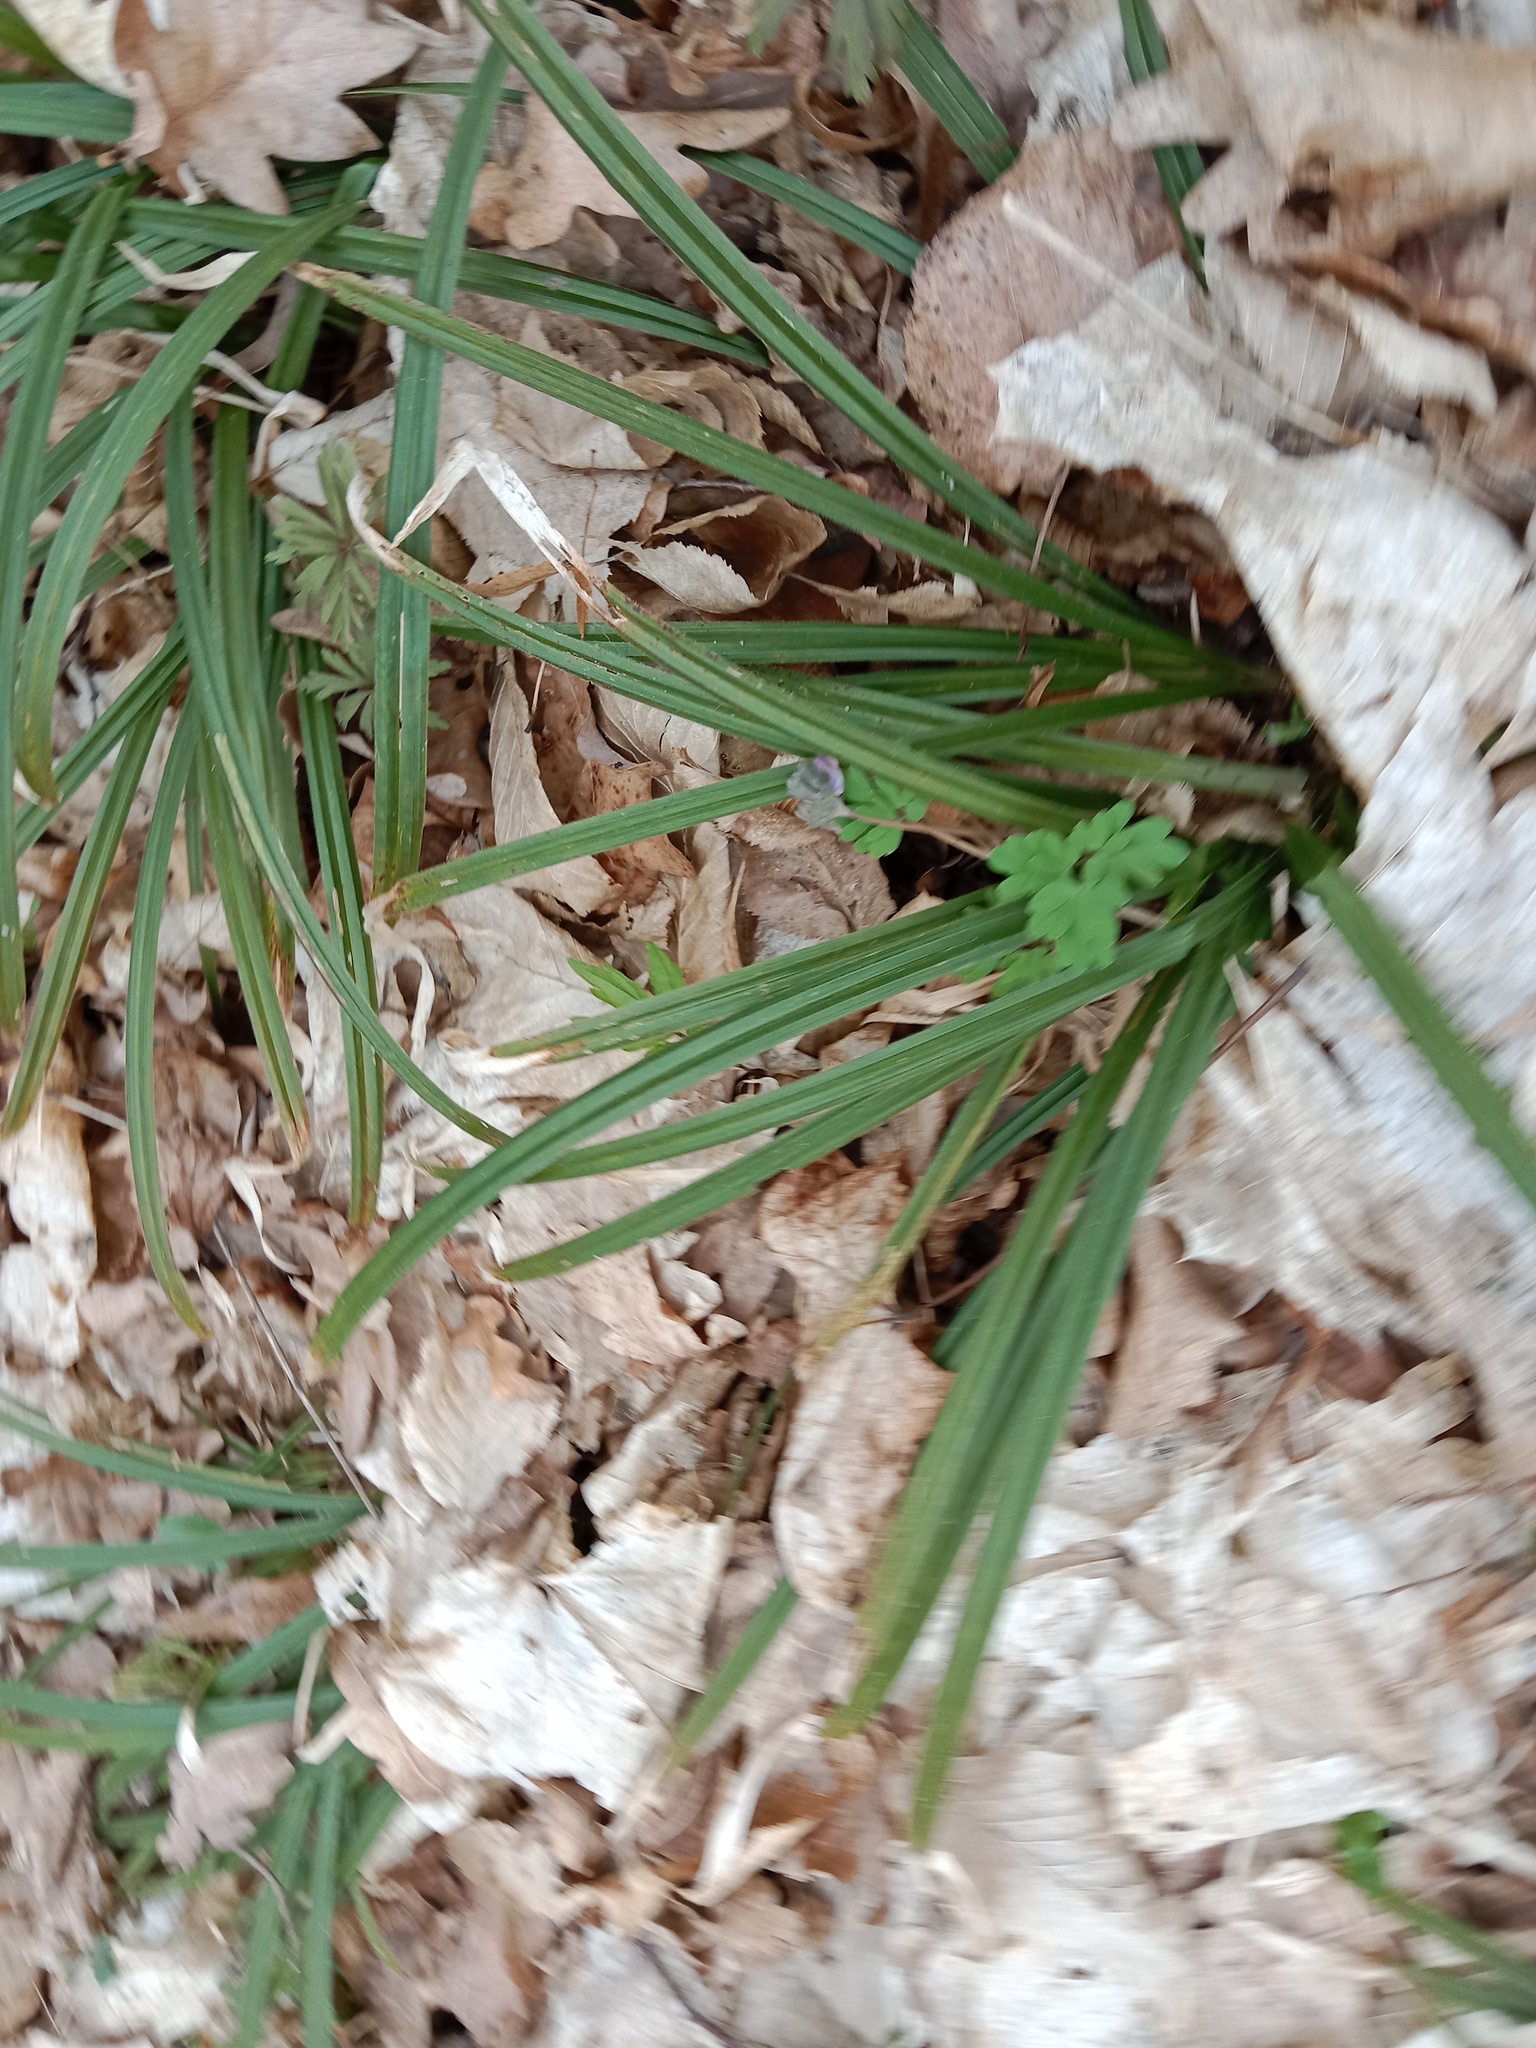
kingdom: Plantae
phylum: Tracheophyta
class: Liliopsida
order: Poales
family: Cyperaceae
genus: Carex
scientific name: Carex pilosa
